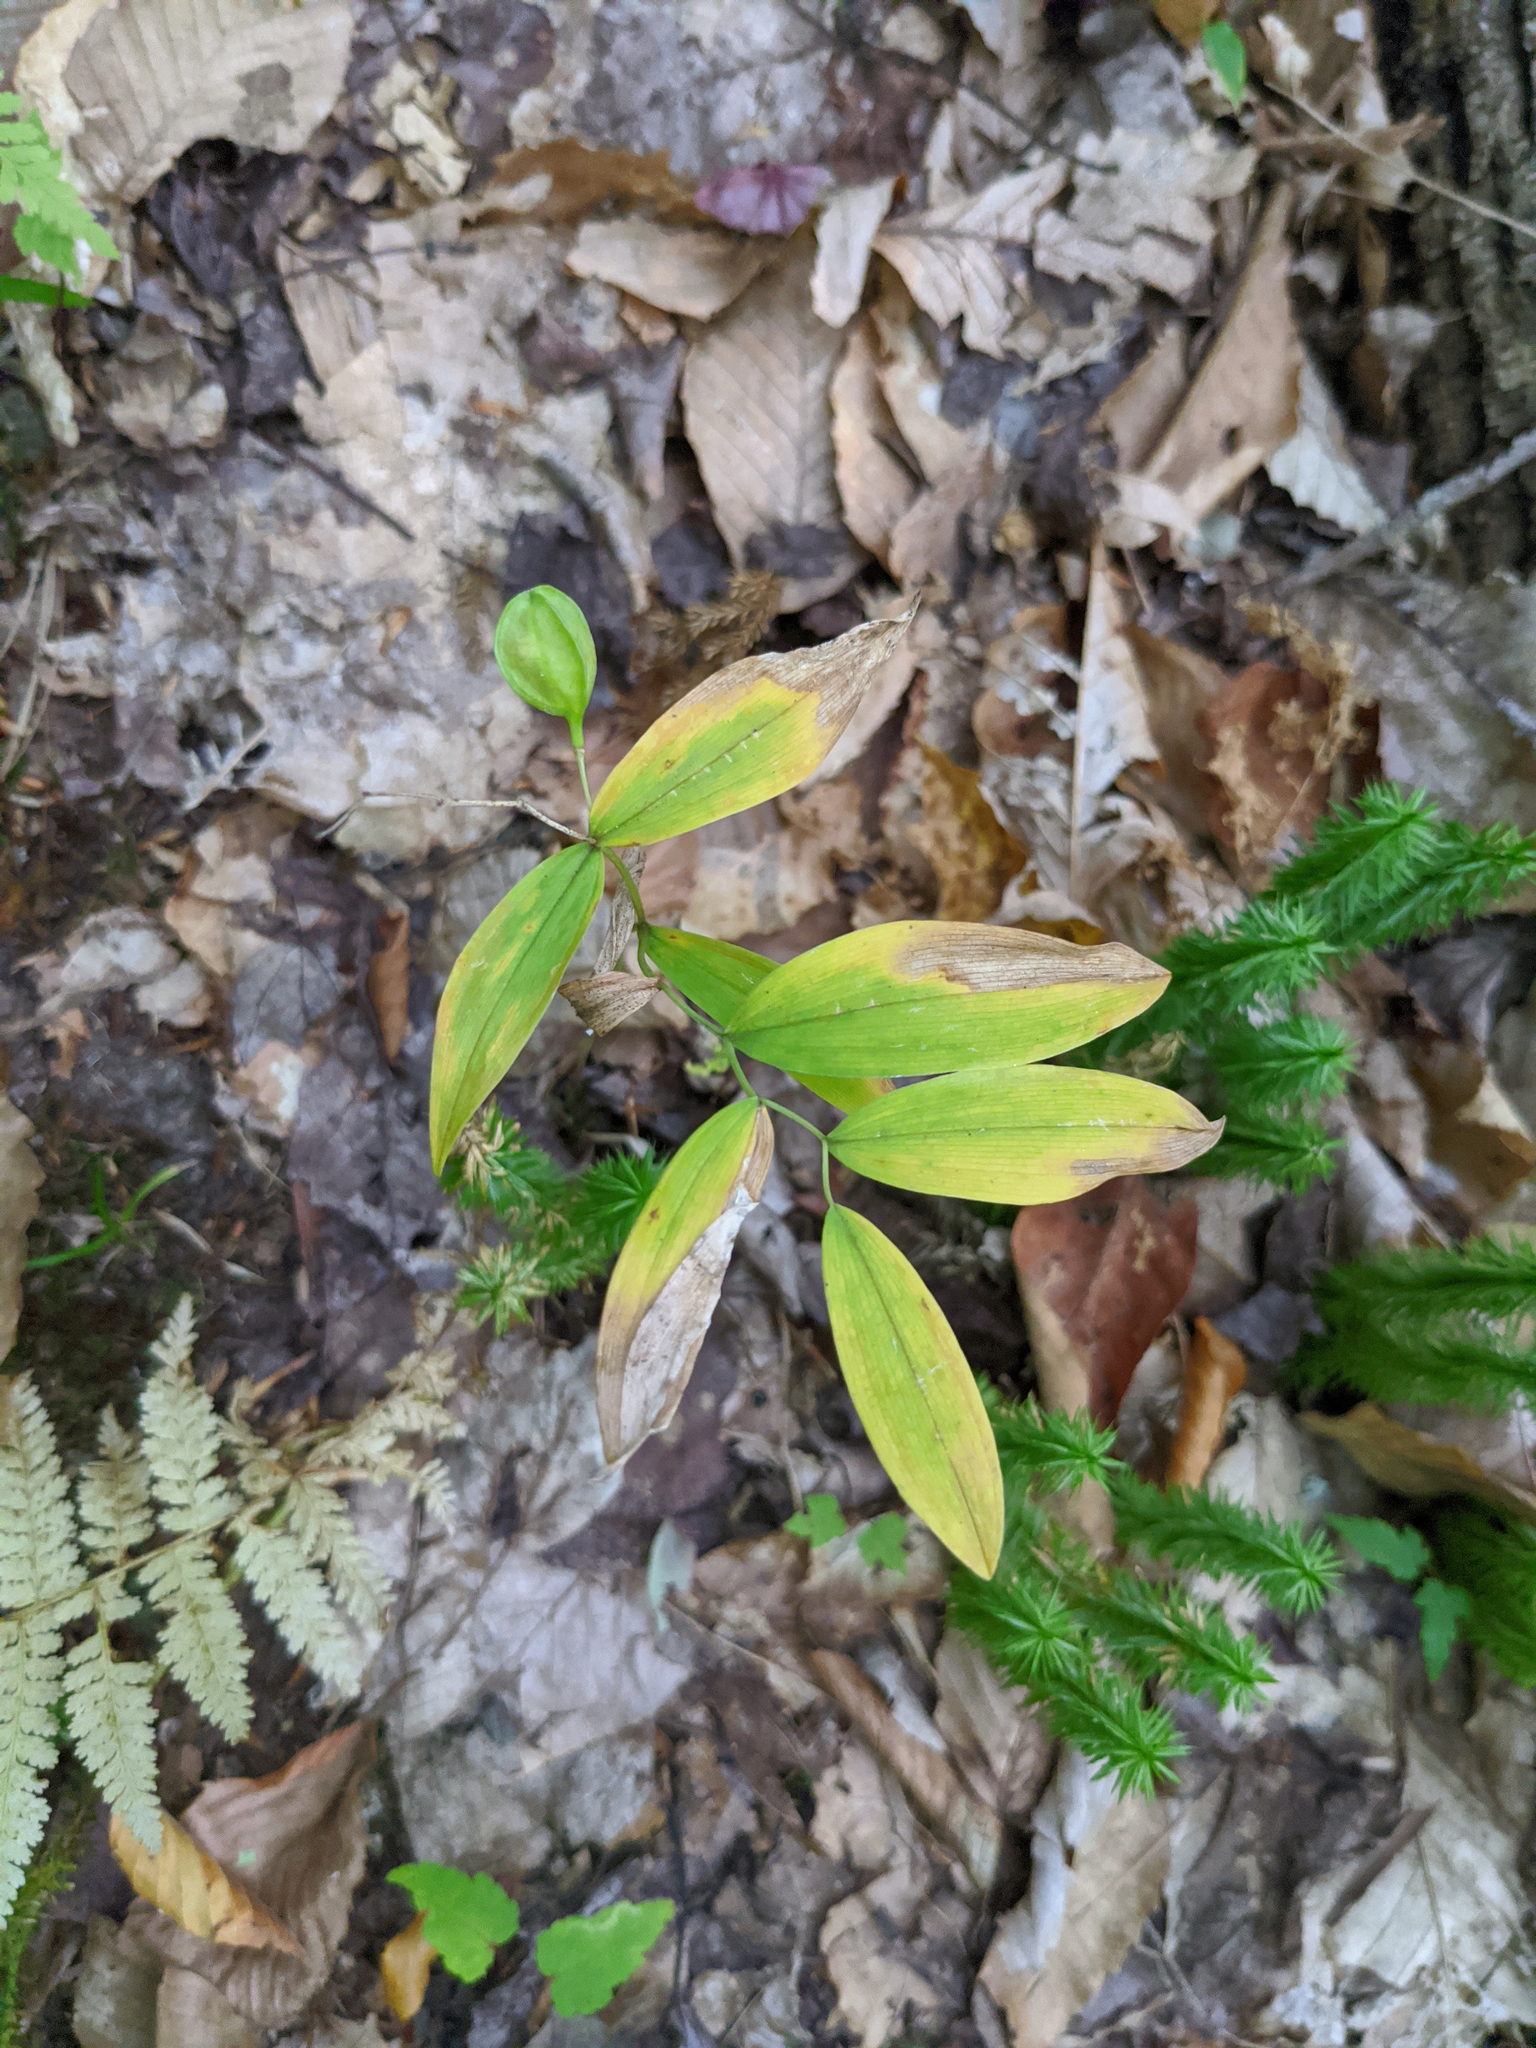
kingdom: Plantae
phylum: Tracheophyta
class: Liliopsida
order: Liliales
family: Colchicaceae
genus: Uvularia
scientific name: Uvularia sessilifolia
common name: Straw-lily
